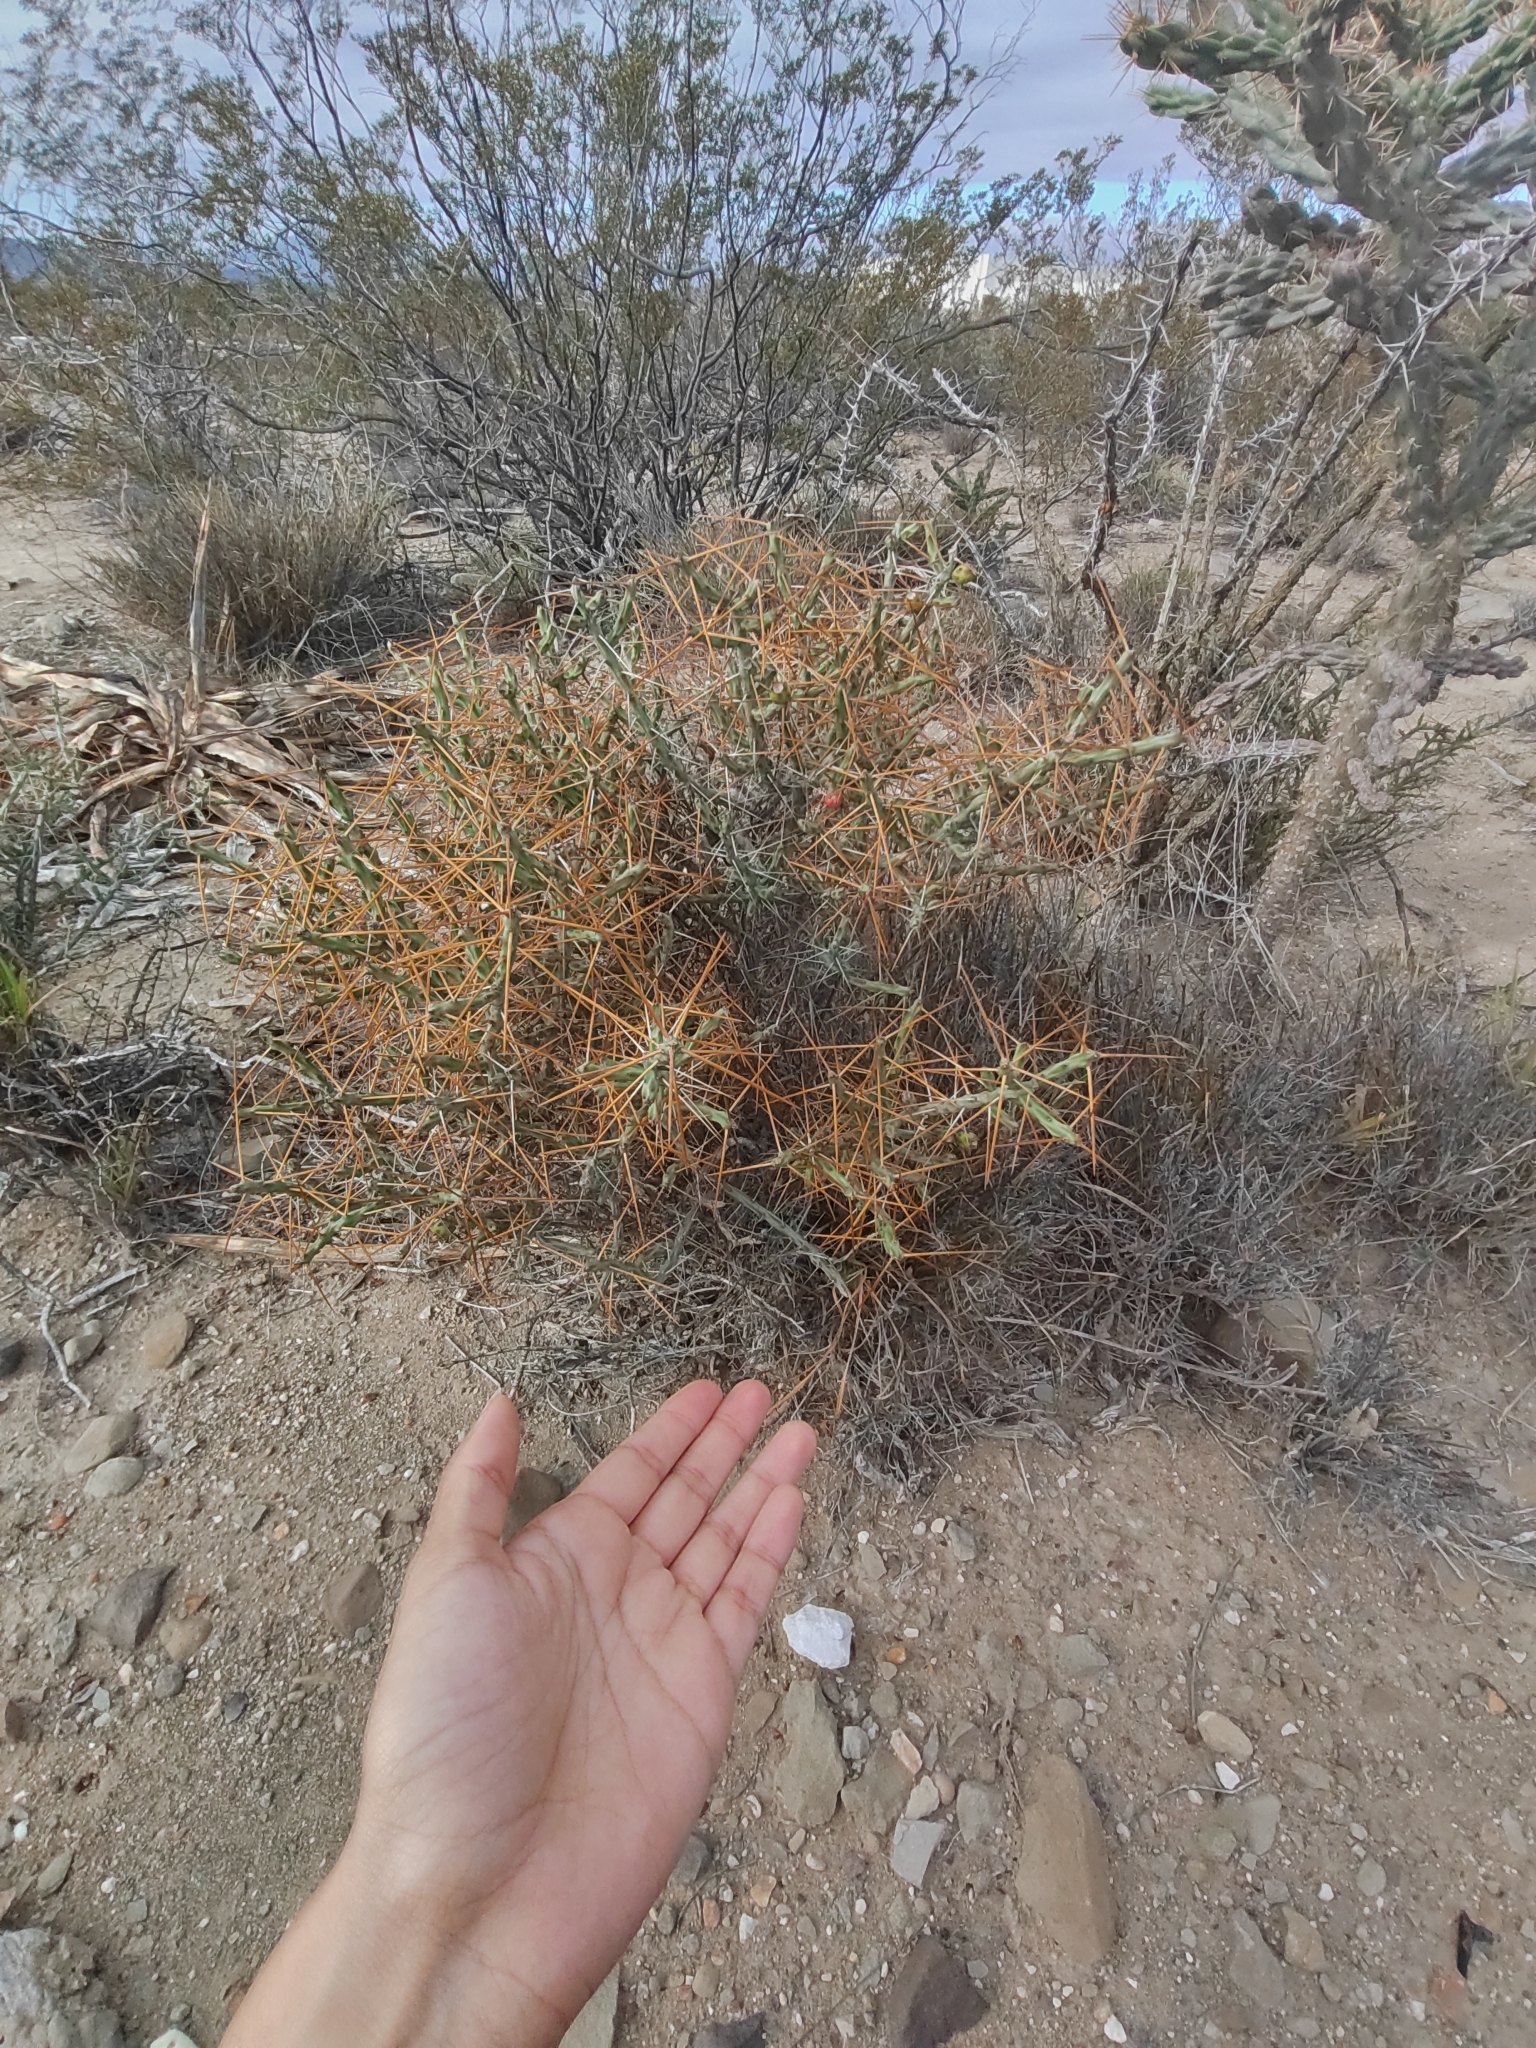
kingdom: Plantae
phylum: Tracheophyta
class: Magnoliopsida
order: Caryophyllales
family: Cactaceae
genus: Cylindropuntia
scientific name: Cylindropuntia leptocaulis
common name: Christmas cactus
